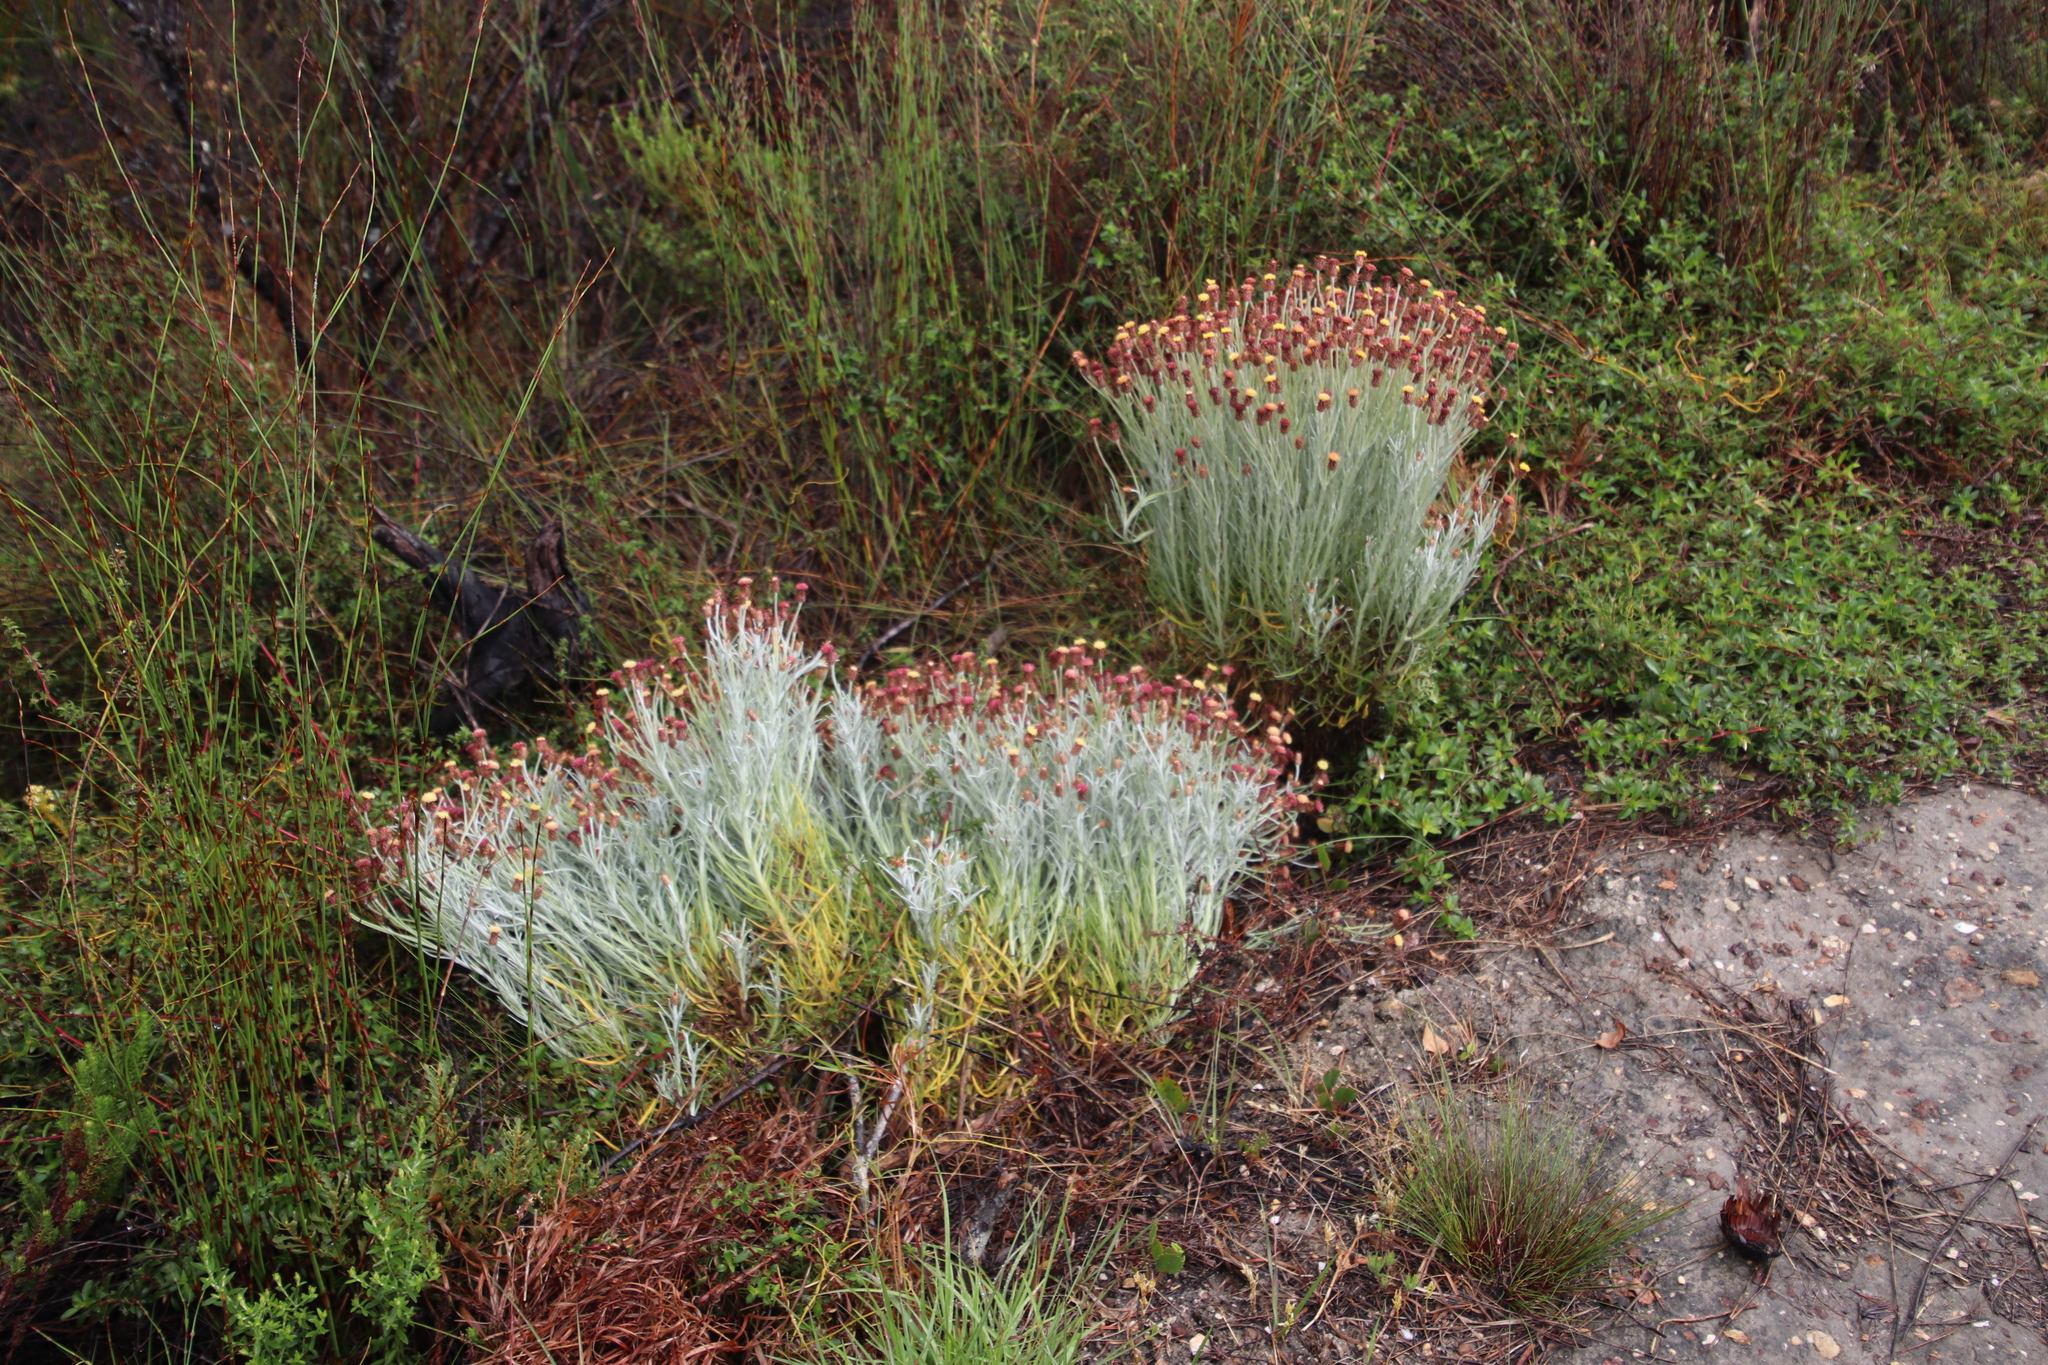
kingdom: Plantae
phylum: Tracheophyta
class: Magnoliopsida
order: Asterales
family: Asteraceae
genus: Syncarpha
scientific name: Syncarpha gnaphaloides
